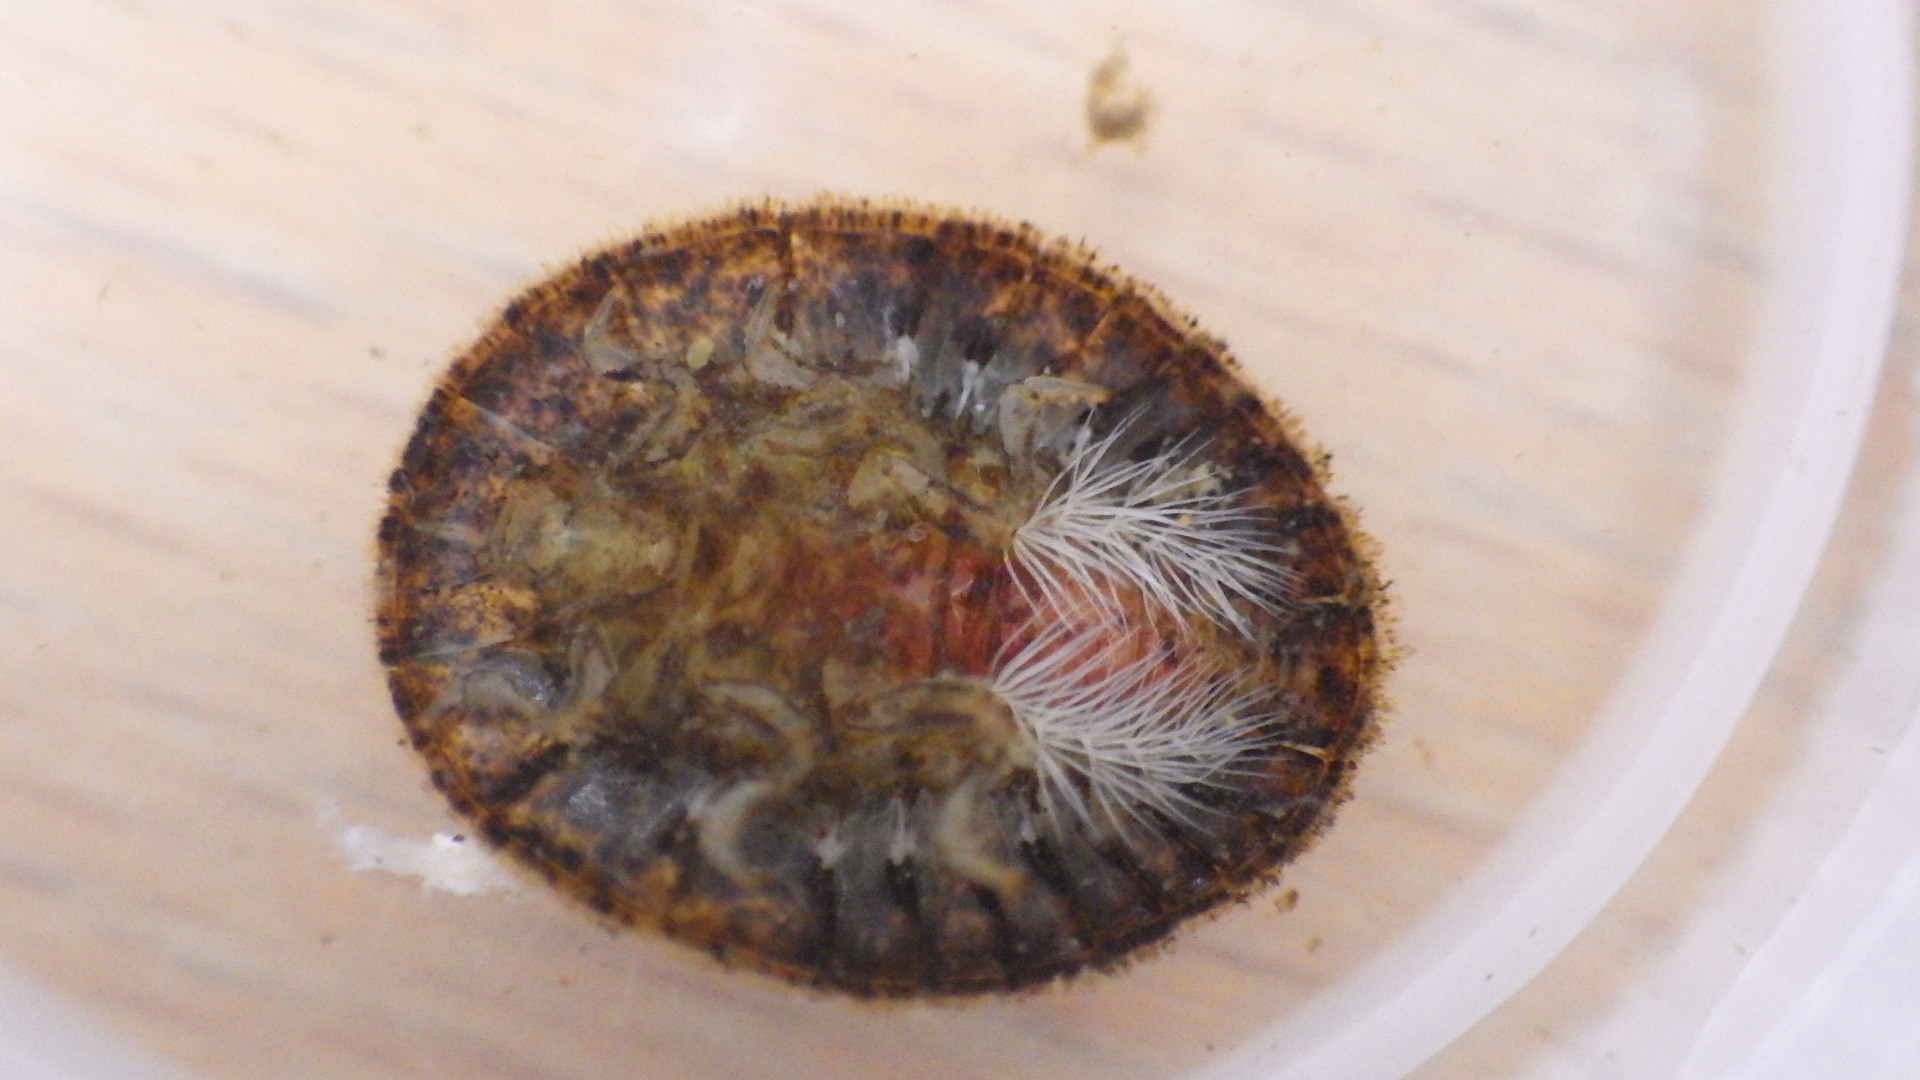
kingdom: Animalia
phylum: Arthropoda
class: Insecta
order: Coleoptera
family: Psephenidae
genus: Psephenus
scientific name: Psephenus herricki
